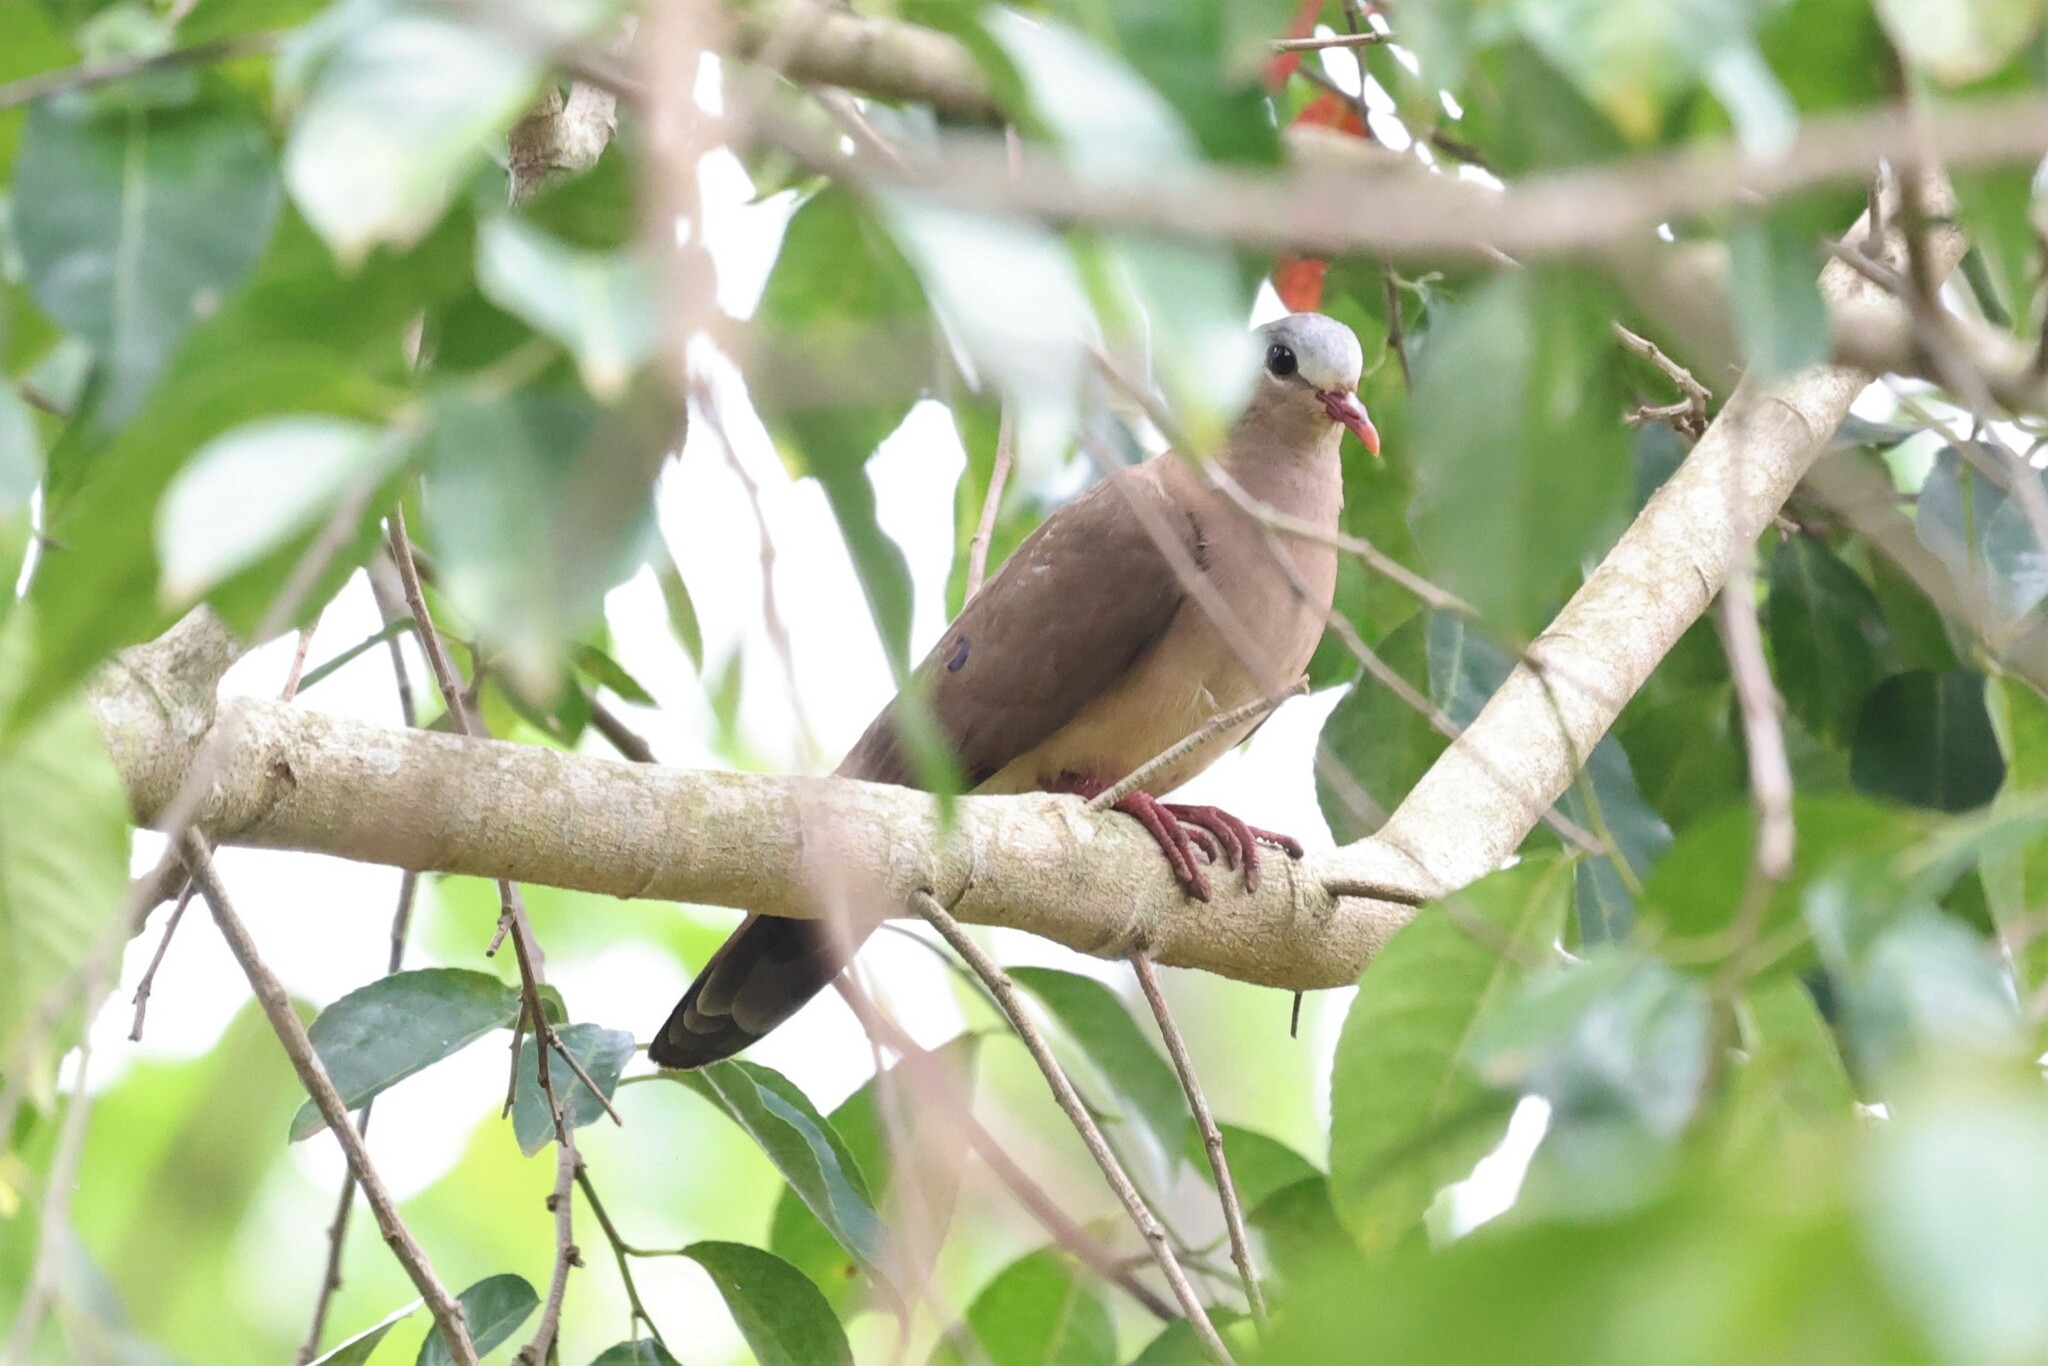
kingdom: Animalia
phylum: Chordata
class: Aves
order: Columbiformes
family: Columbidae
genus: Turtur
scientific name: Turtur afer
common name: Blue-spotted wood dove
